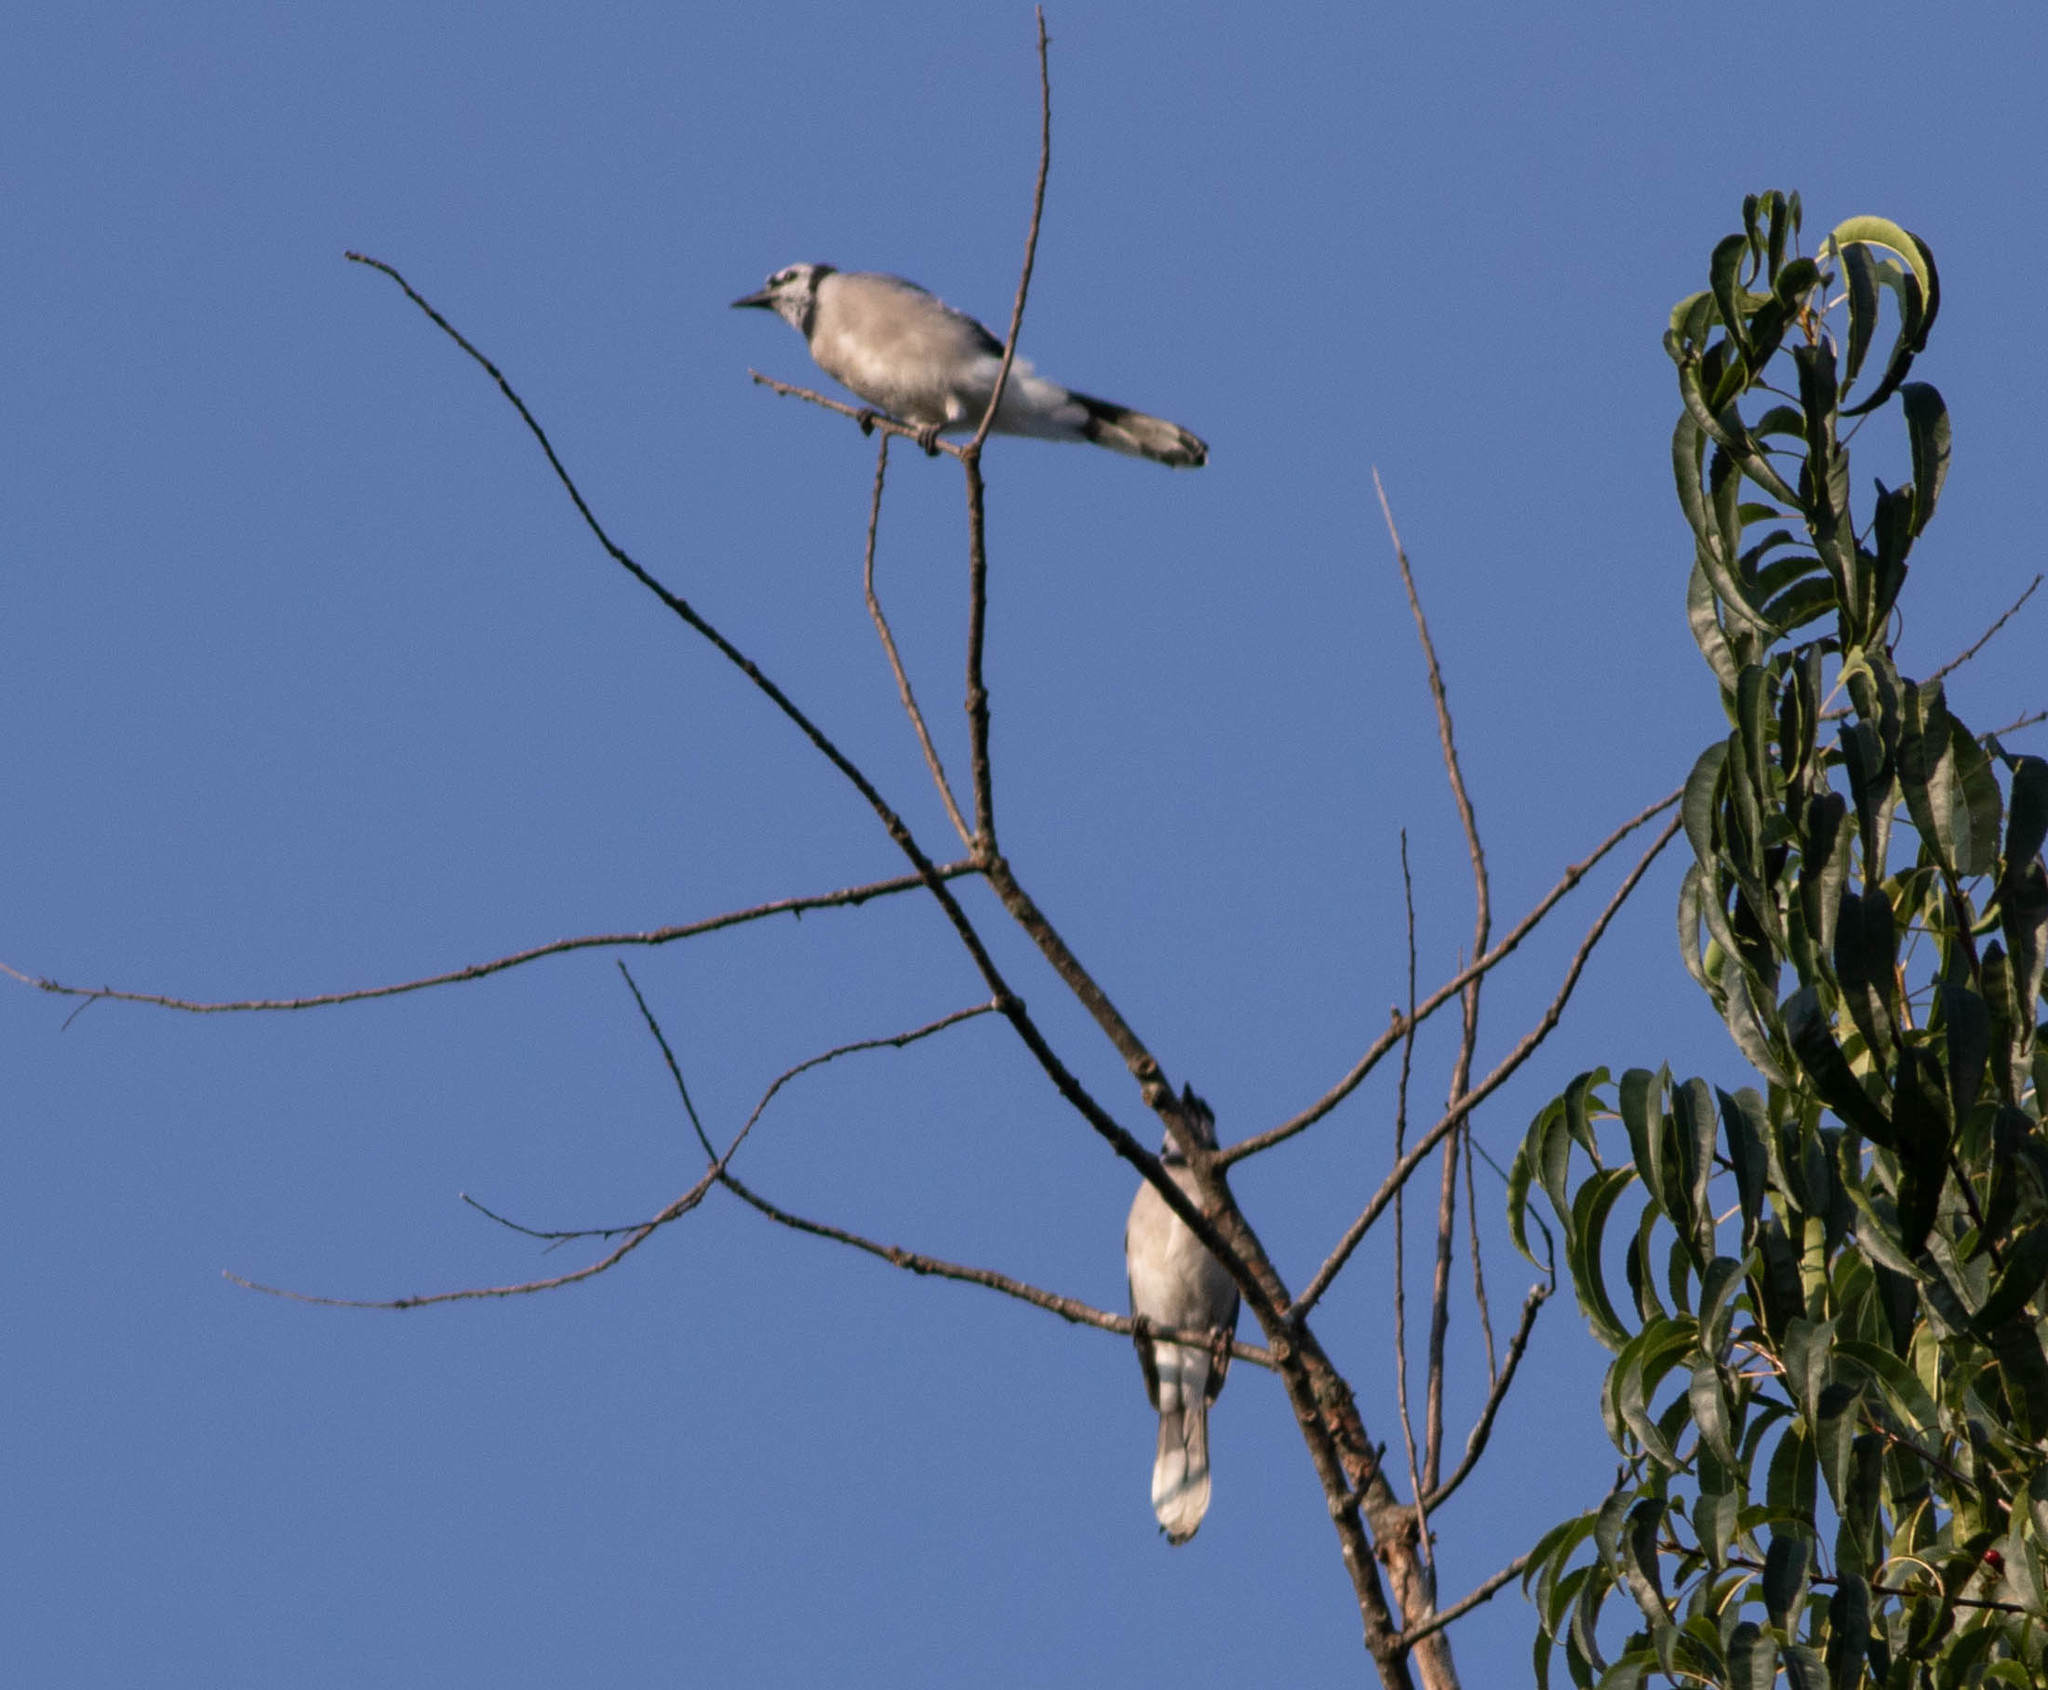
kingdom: Animalia
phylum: Chordata
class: Aves
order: Passeriformes
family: Corvidae
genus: Cyanocitta
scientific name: Cyanocitta cristata
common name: Blue jay
